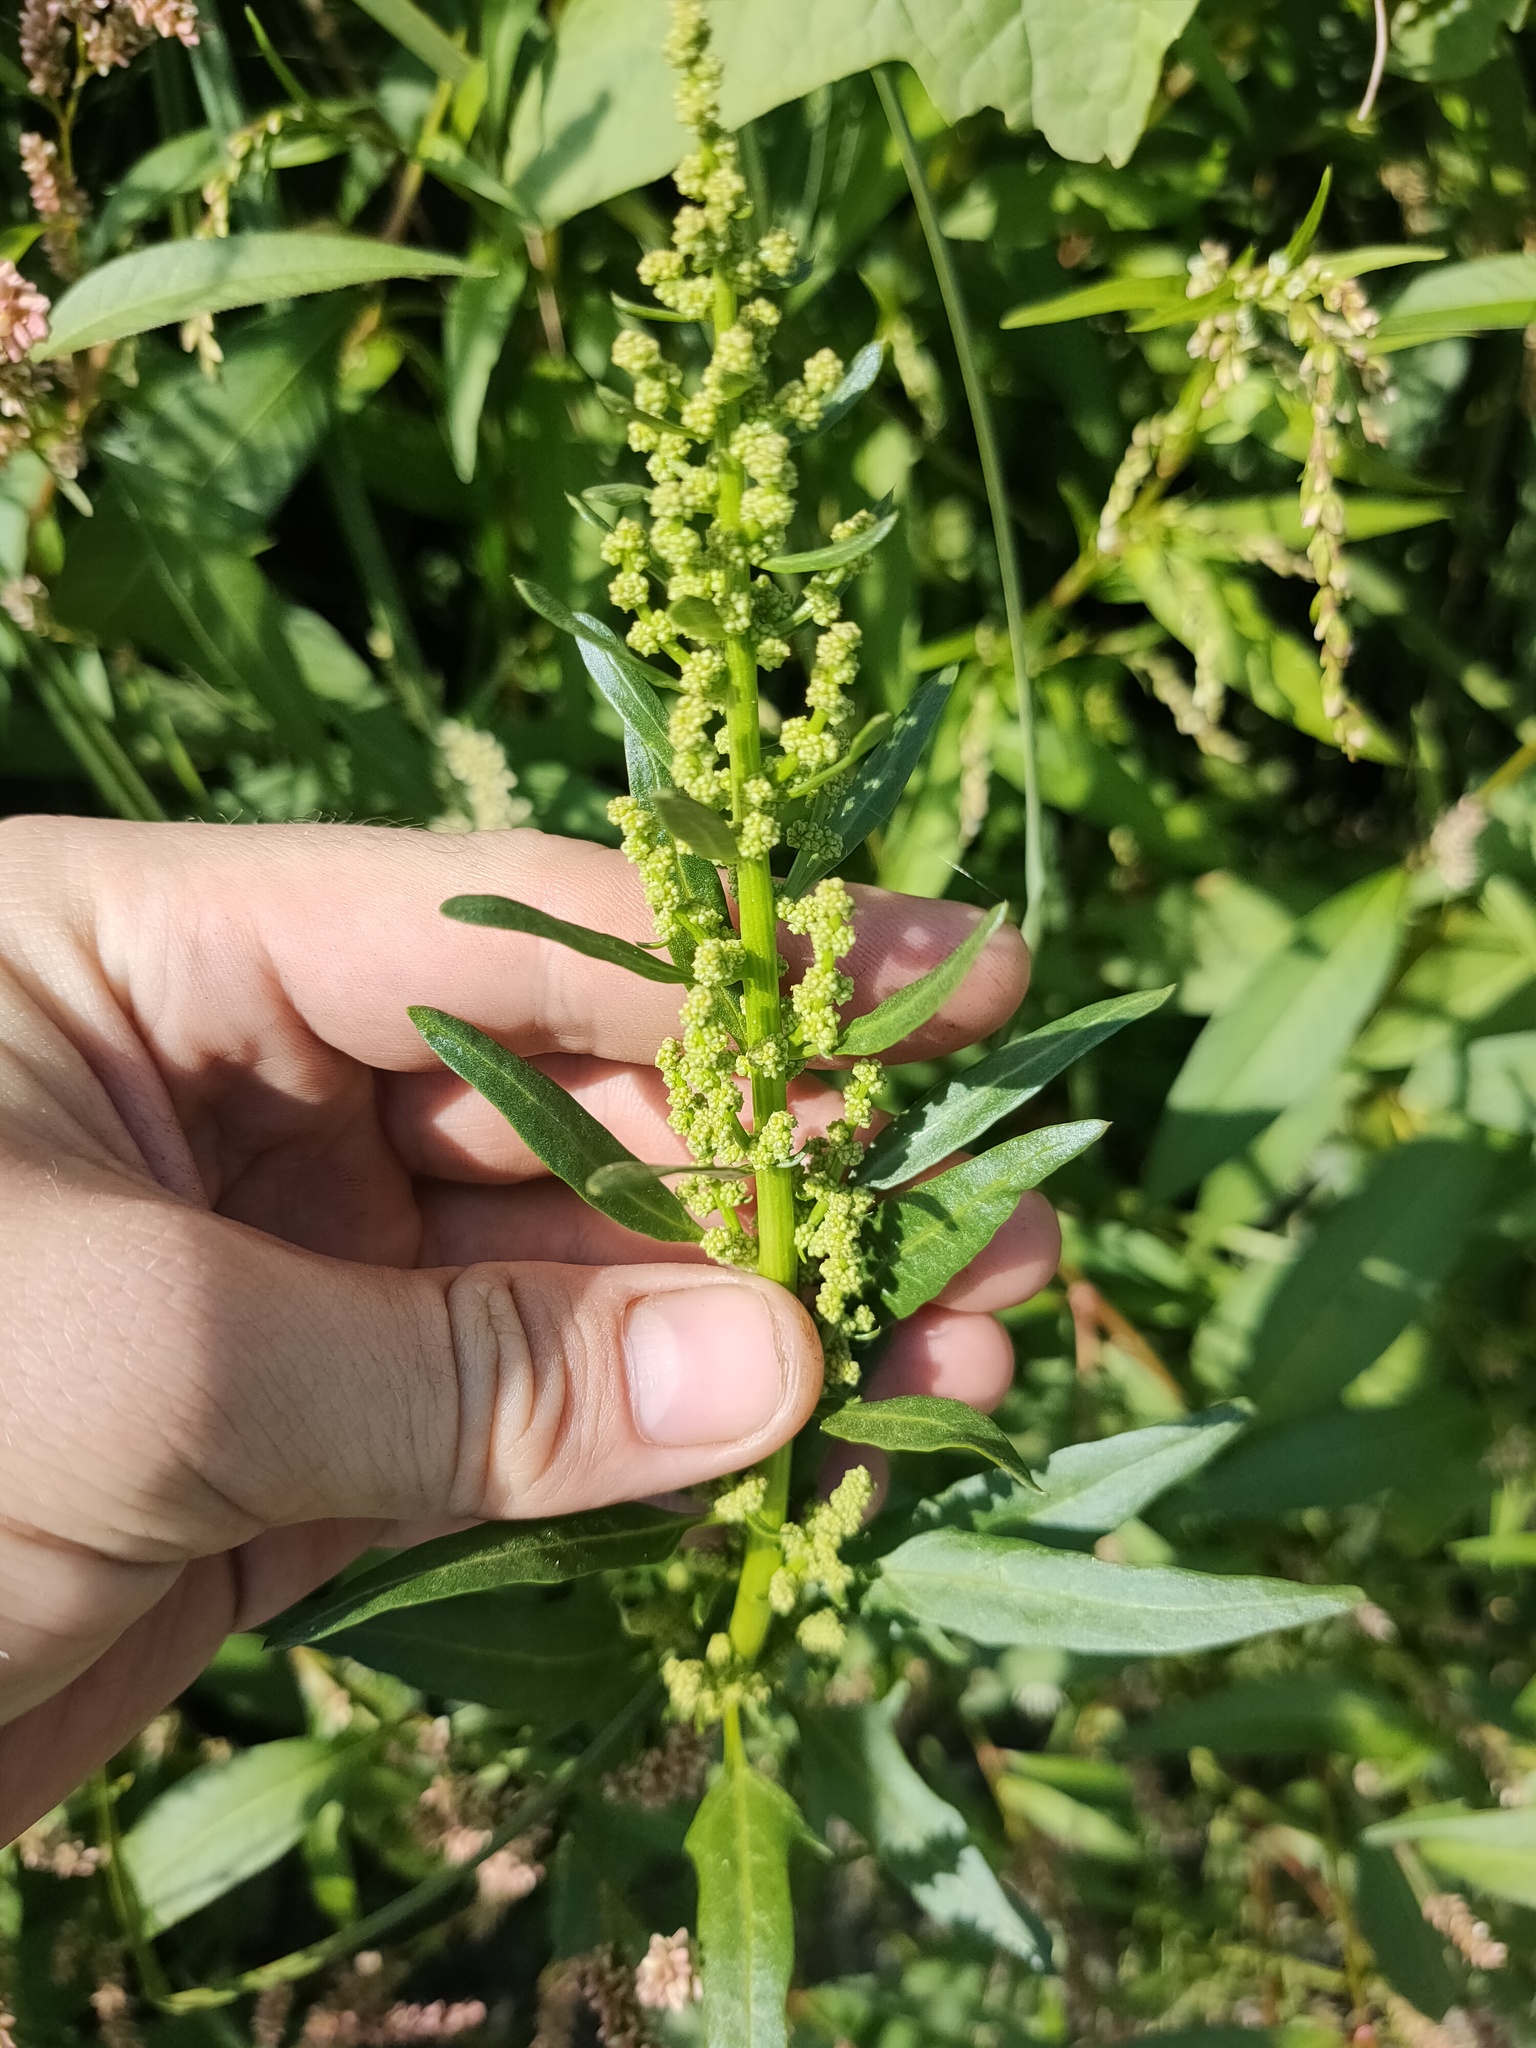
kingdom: Plantae
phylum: Tracheophyta
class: Magnoliopsida
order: Caryophyllales
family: Amaranthaceae
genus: Oxybasis
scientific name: Oxybasis rubra
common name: Red goosefoot
